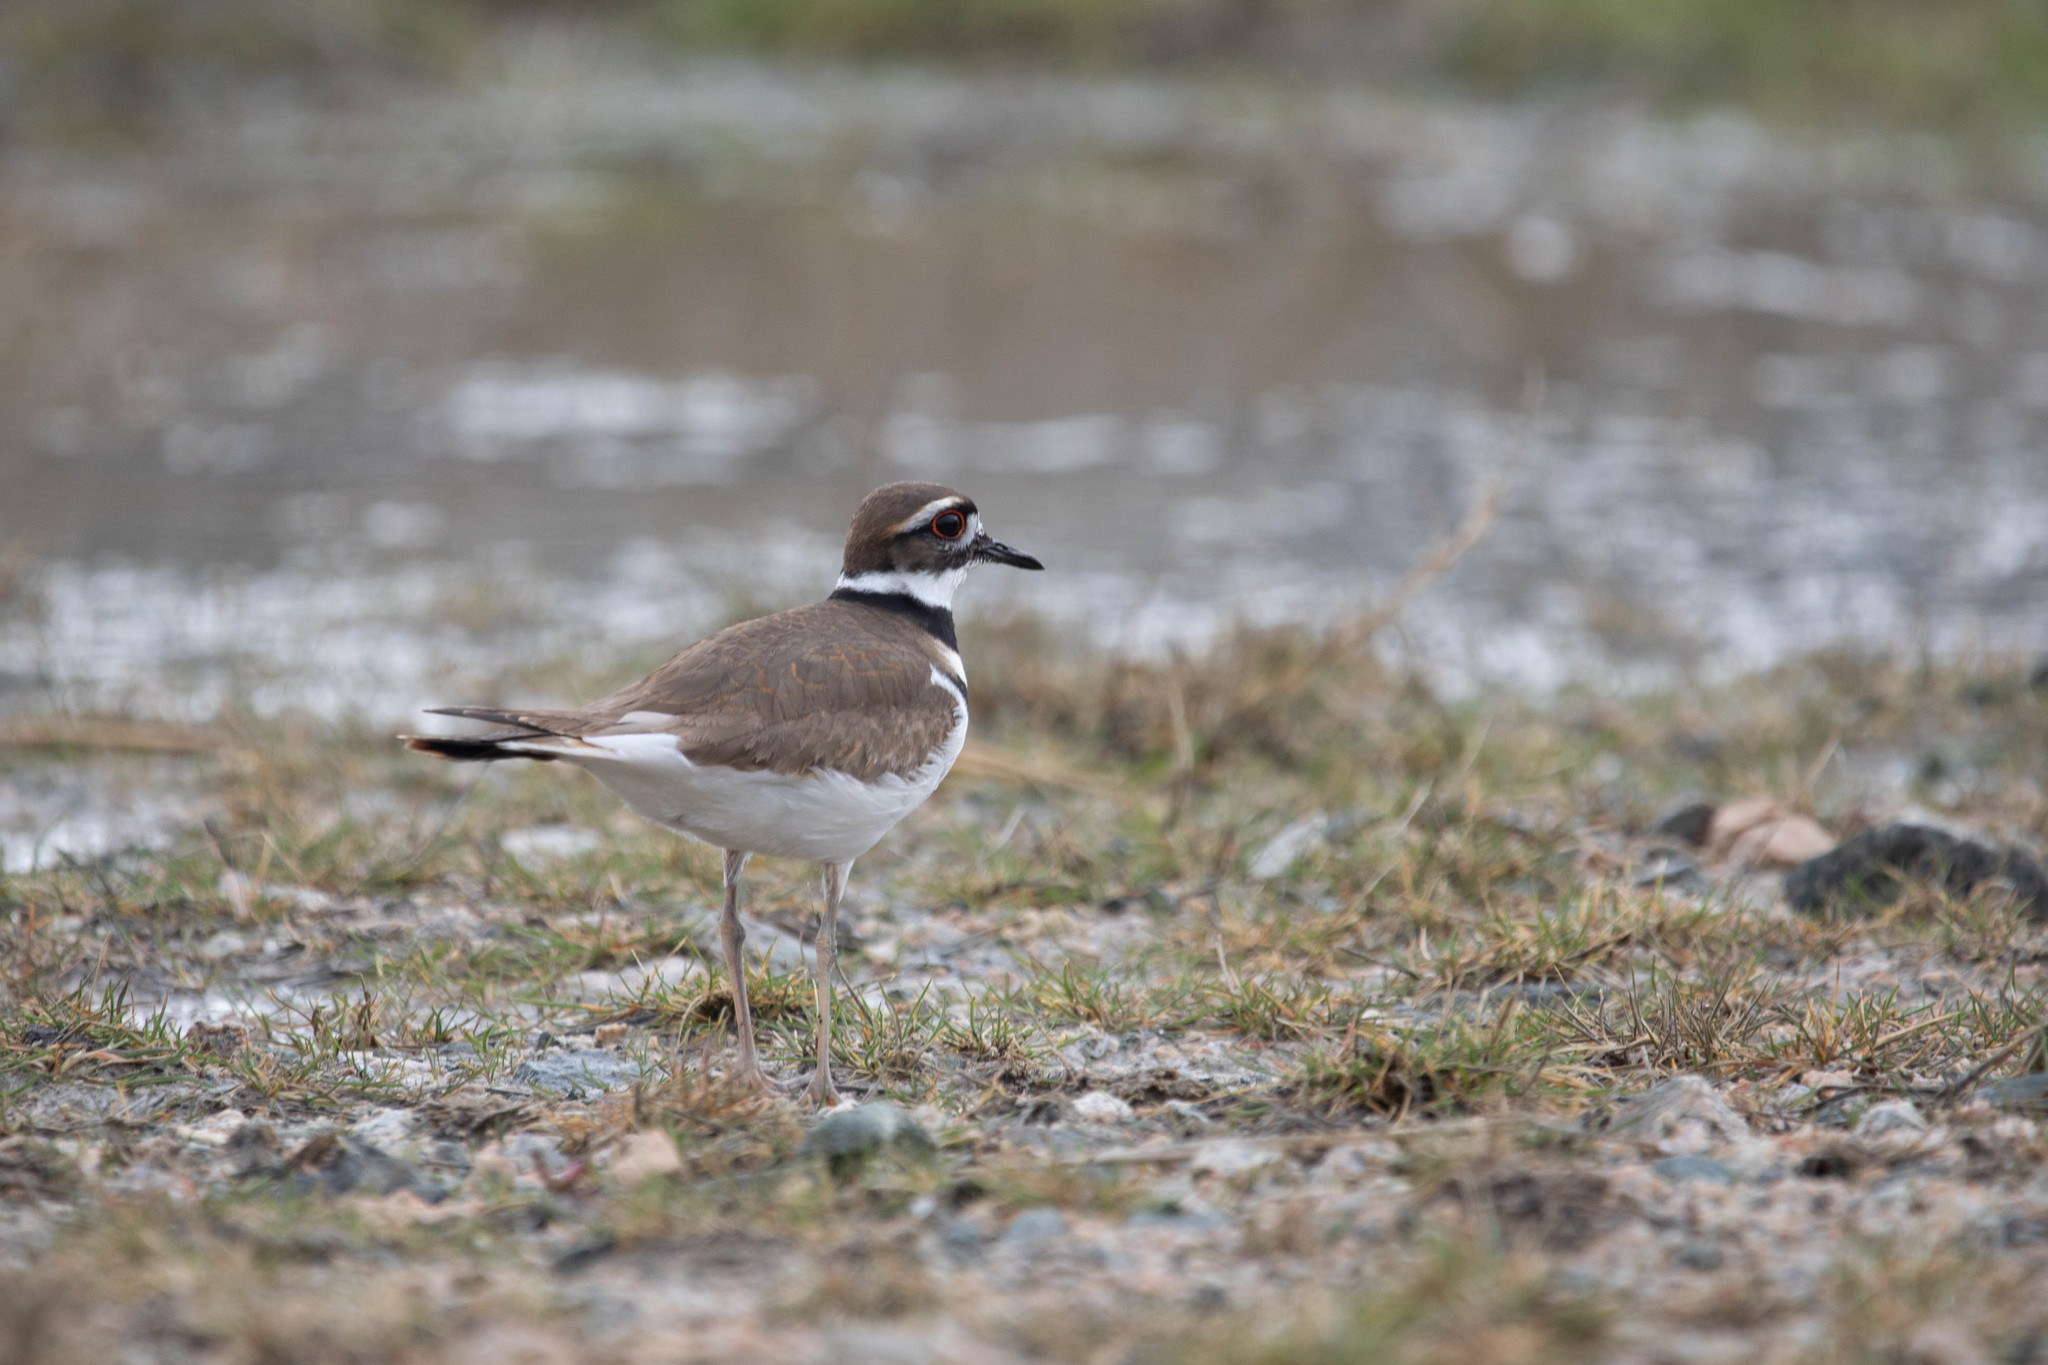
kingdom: Animalia
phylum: Chordata
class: Aves
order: Charadriiformes
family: Charadriidae
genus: Charadrius
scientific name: Charadrius vociferus
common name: Killdeer
